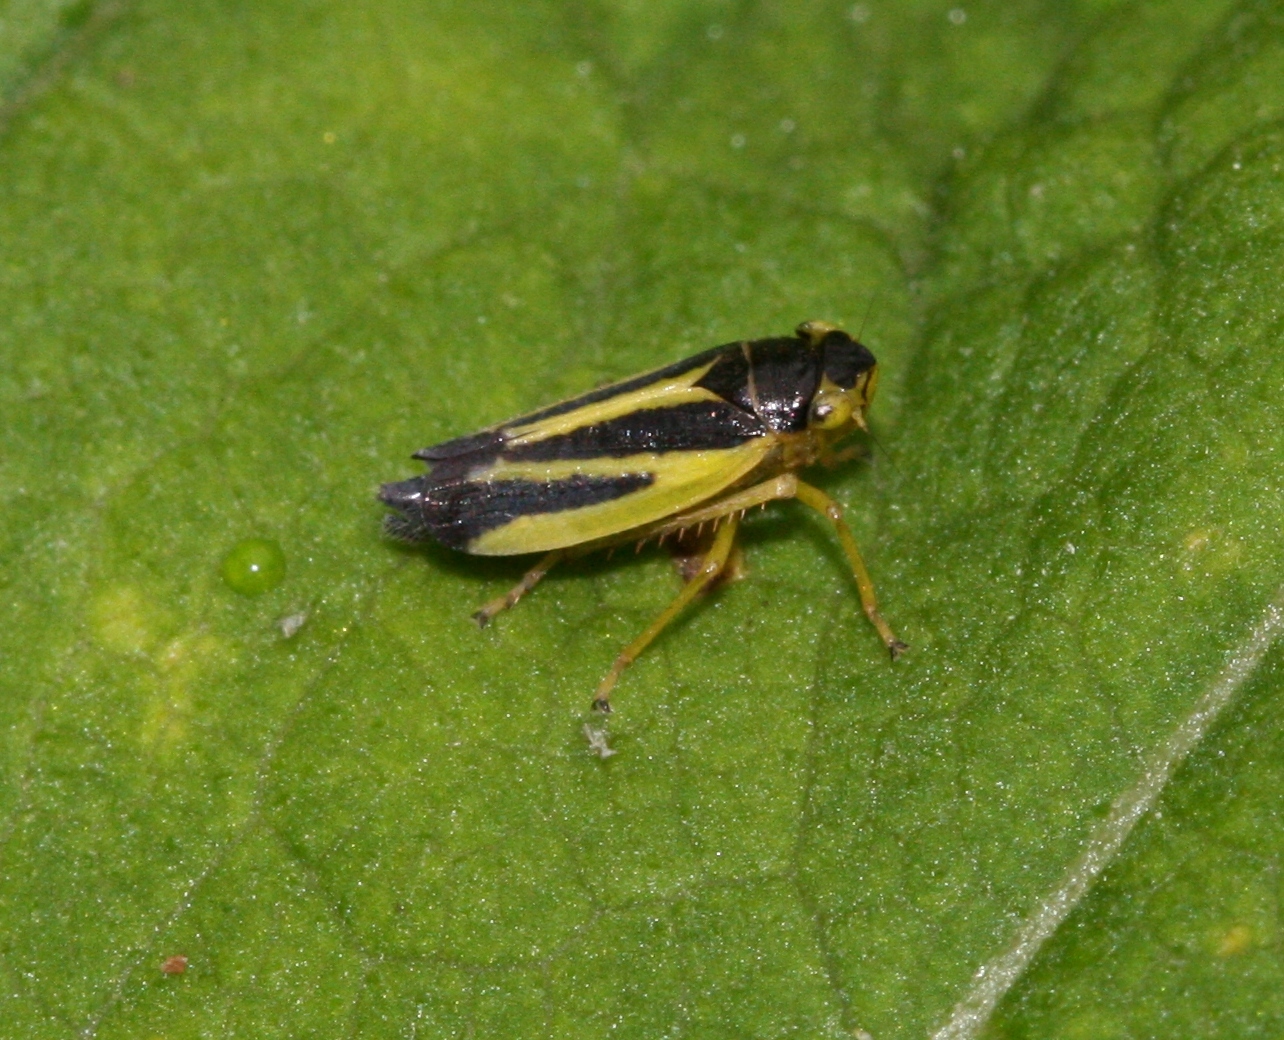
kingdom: Animalia
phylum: Arthropoda
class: Insecta
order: Hemiptera
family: Cicadellidae
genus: Evacanthus
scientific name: Evacanthus interruptus
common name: Leafhopper
